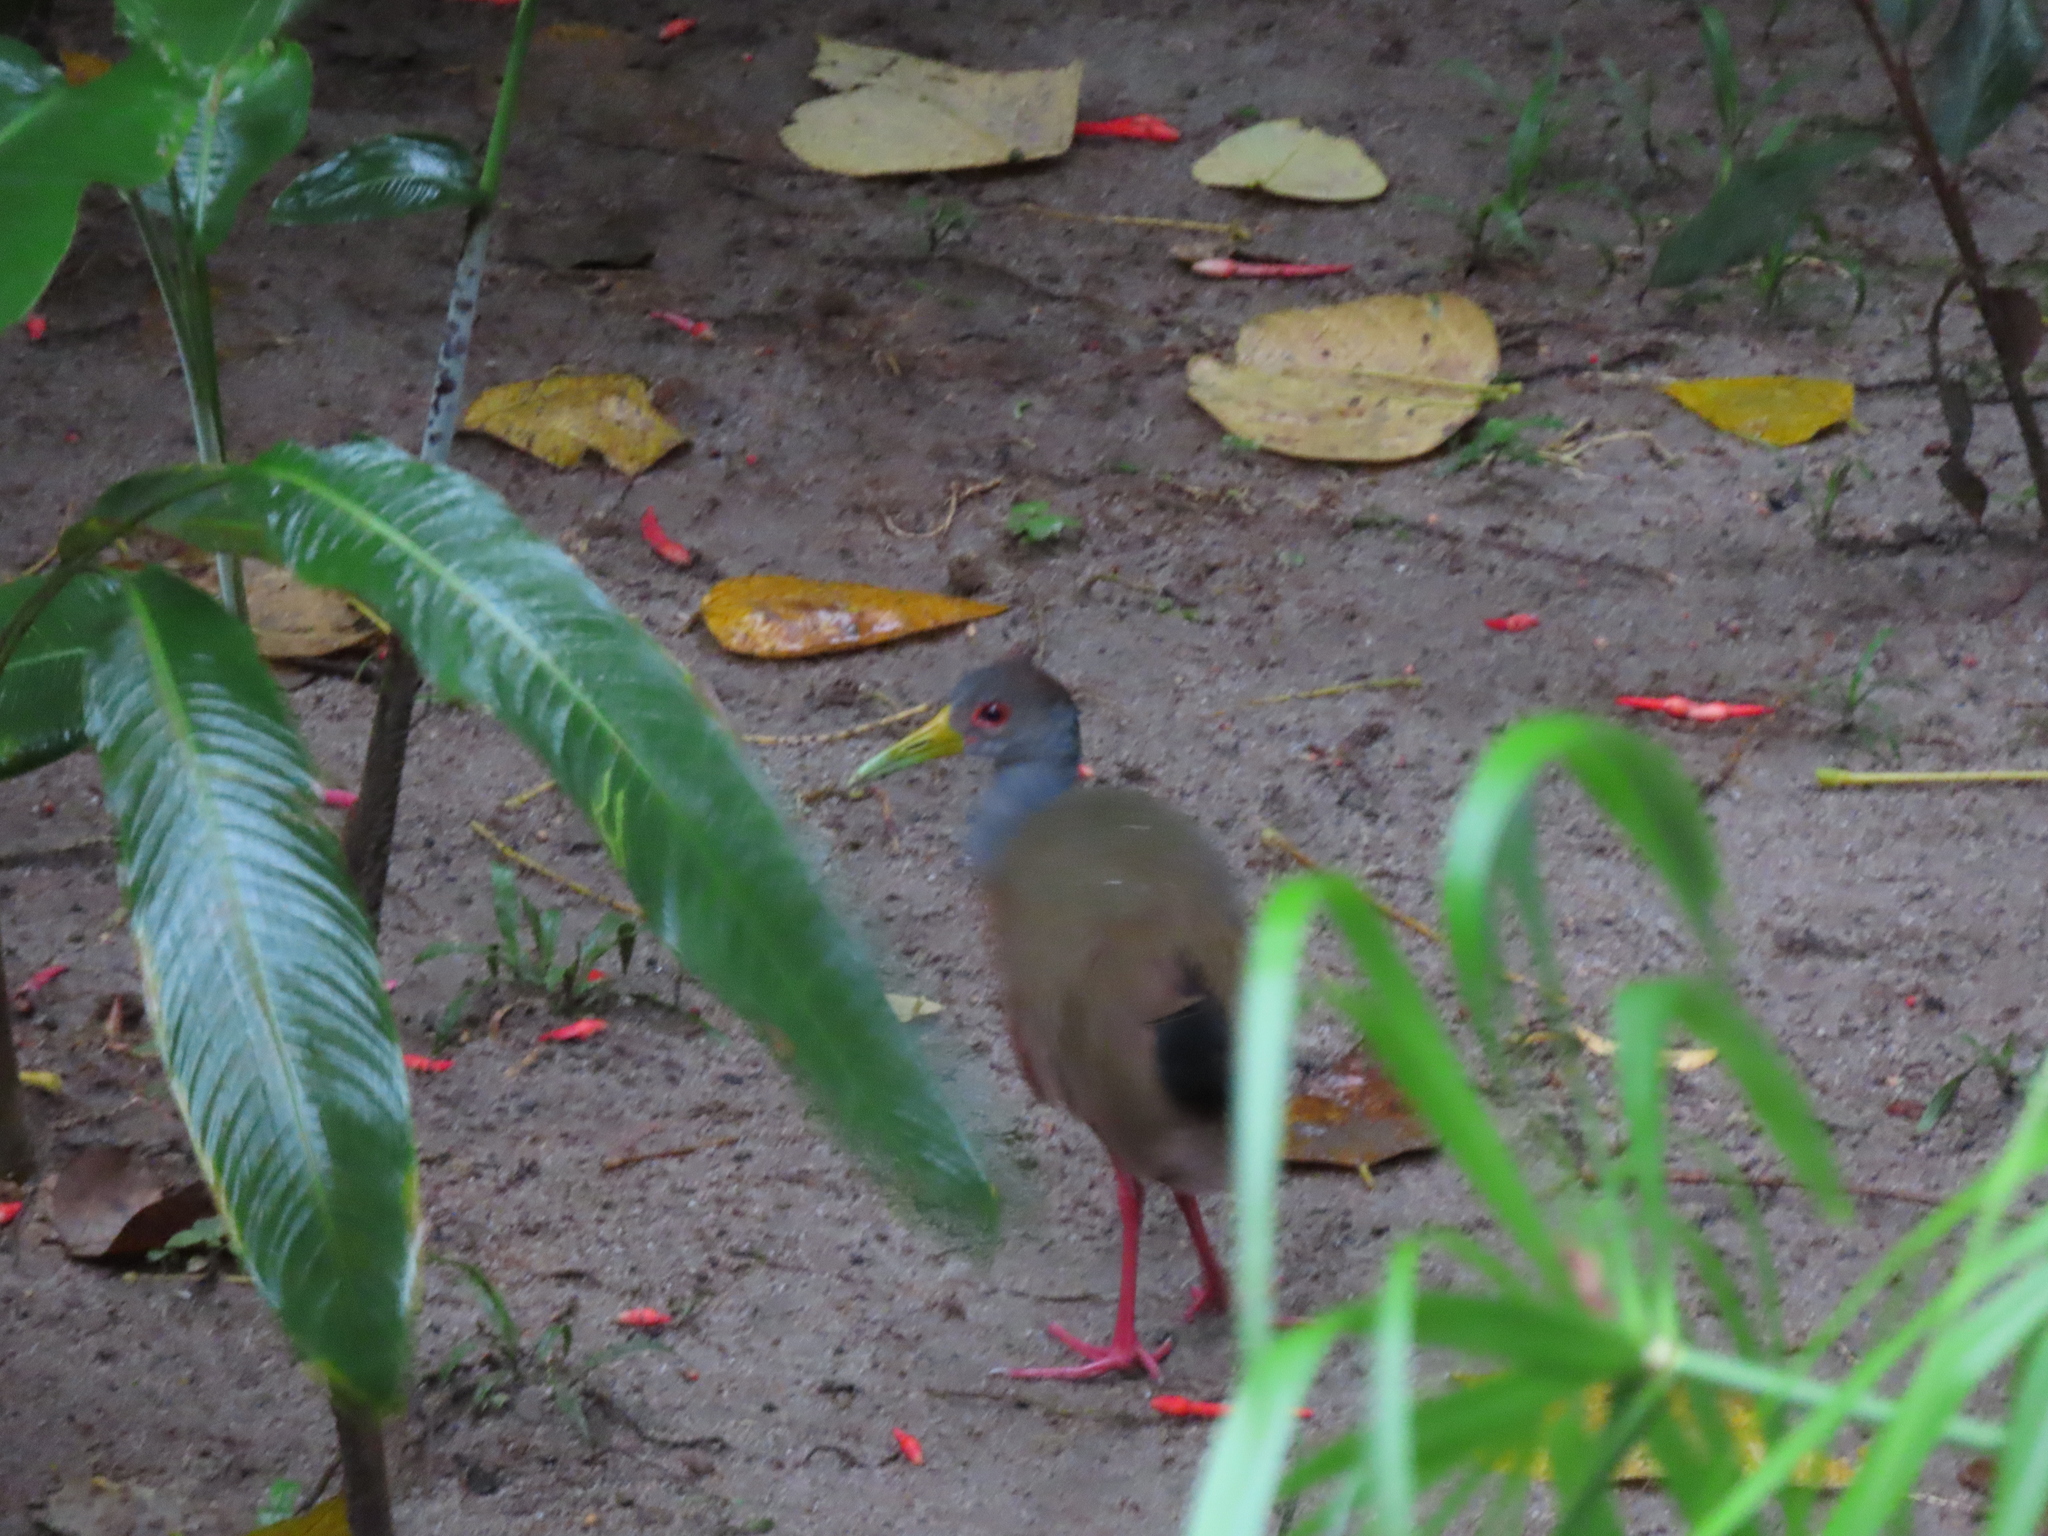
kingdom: Animalia
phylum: Chordata
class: Aves
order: Gruiformes
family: Rallidae
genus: Aramides
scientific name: Aramides cajanea
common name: Gray-necked wood-rail
